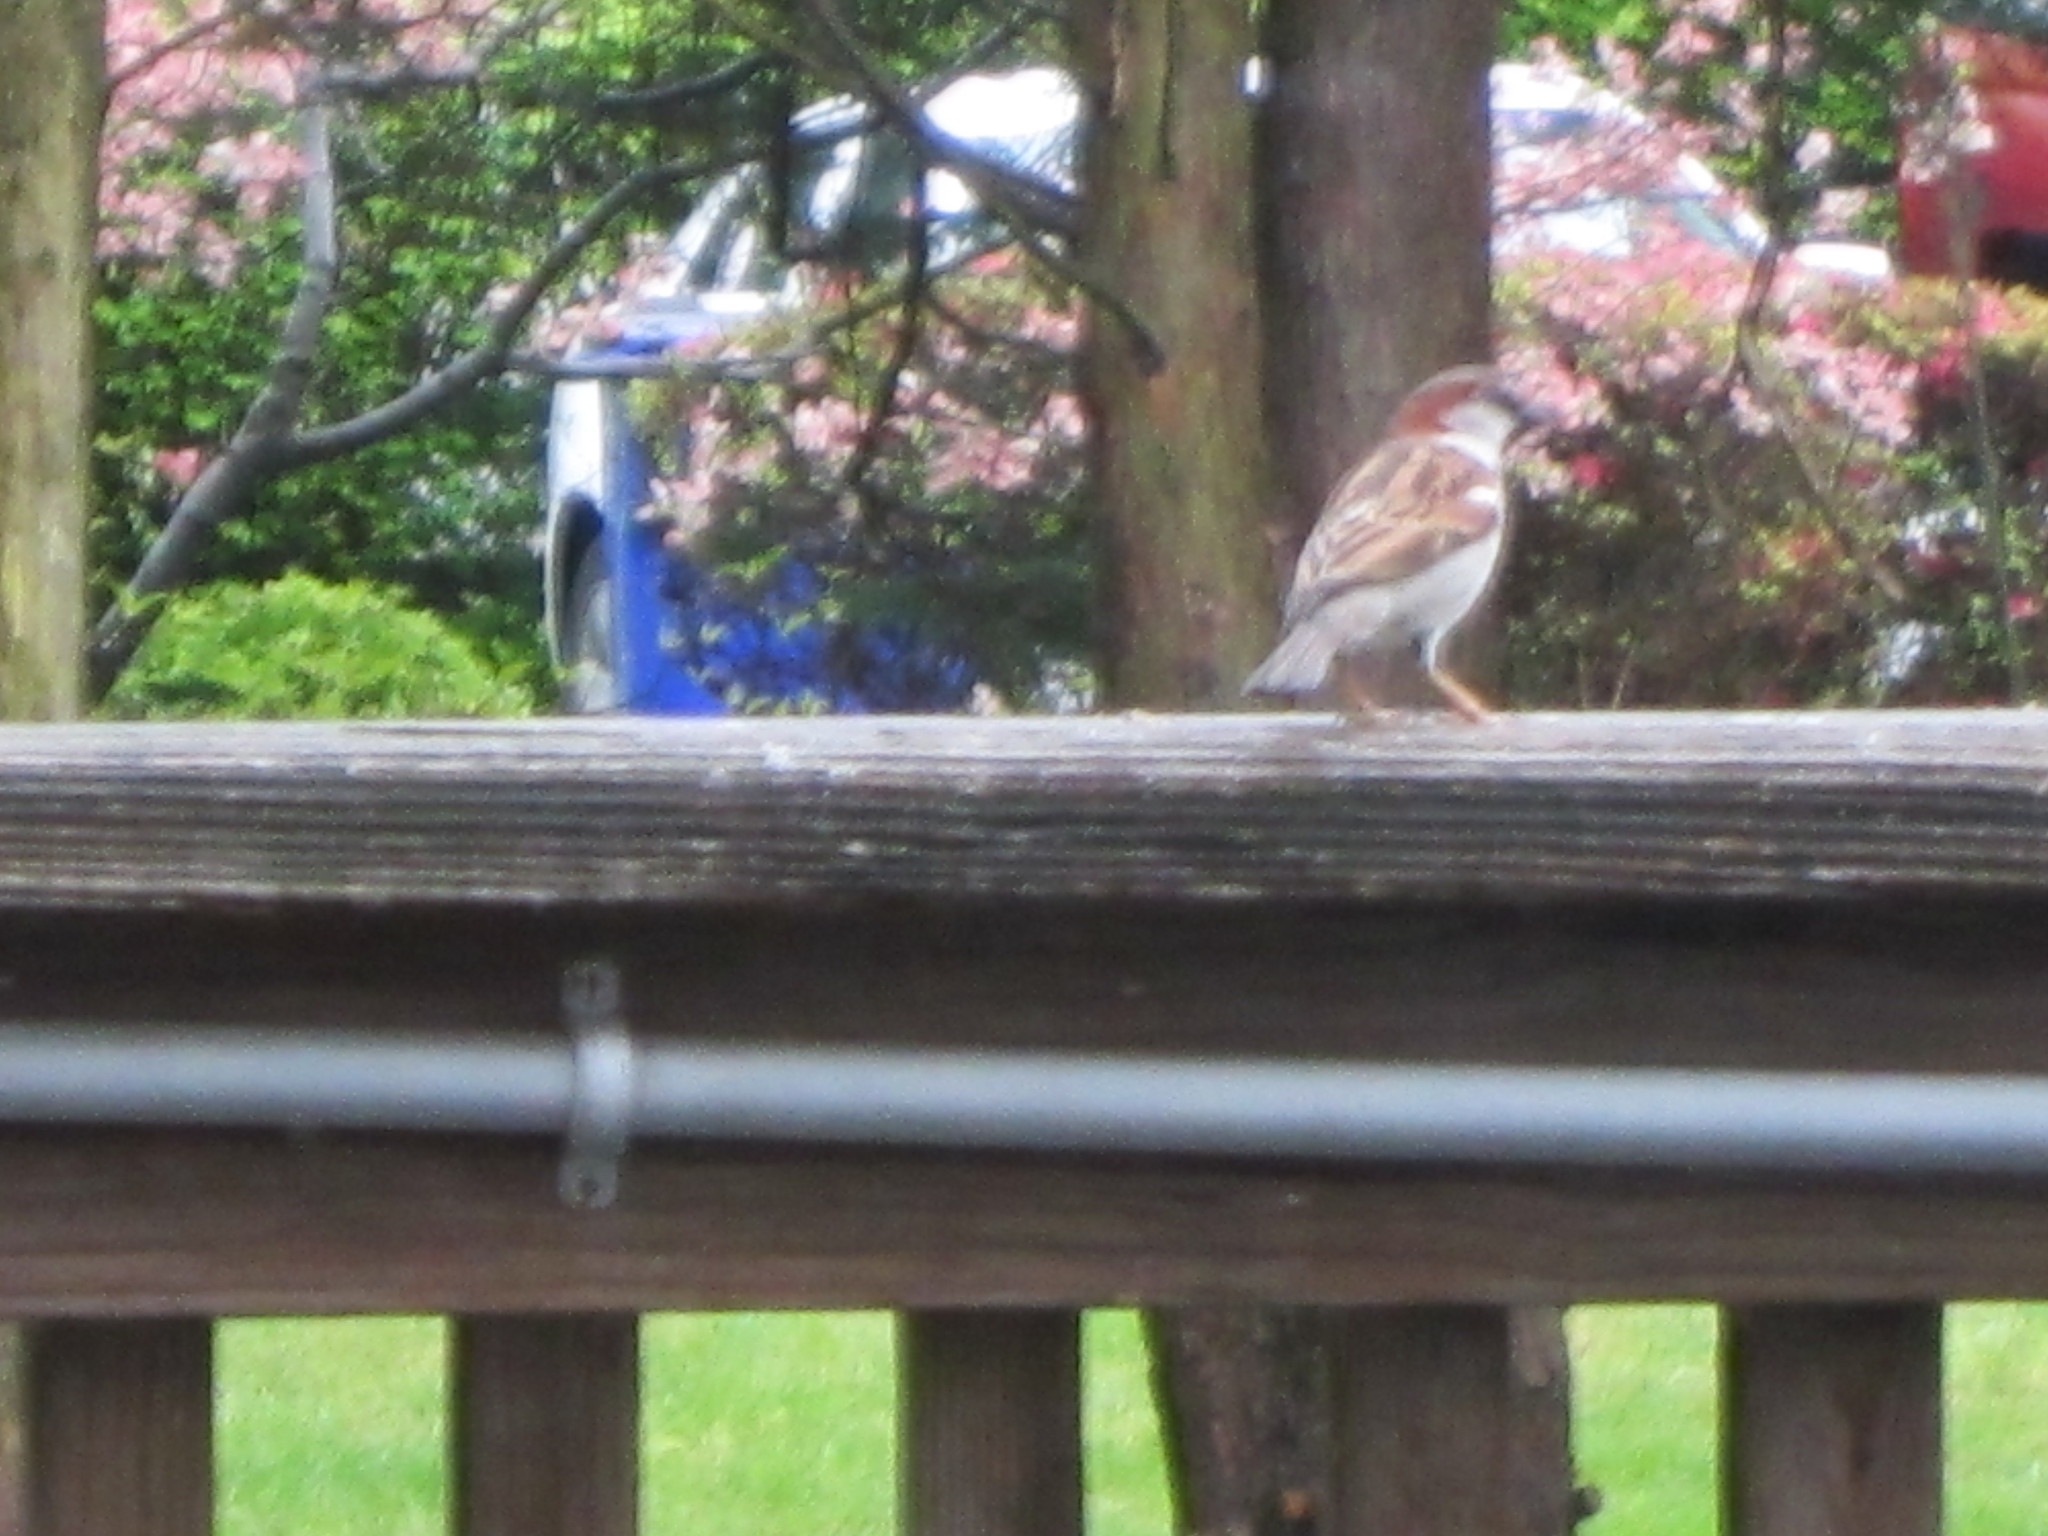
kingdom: Animalia
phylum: Chordata
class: Aves
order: Passeriformes
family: Passeridae
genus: Passer
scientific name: Passer domesticus
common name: House sparrow
